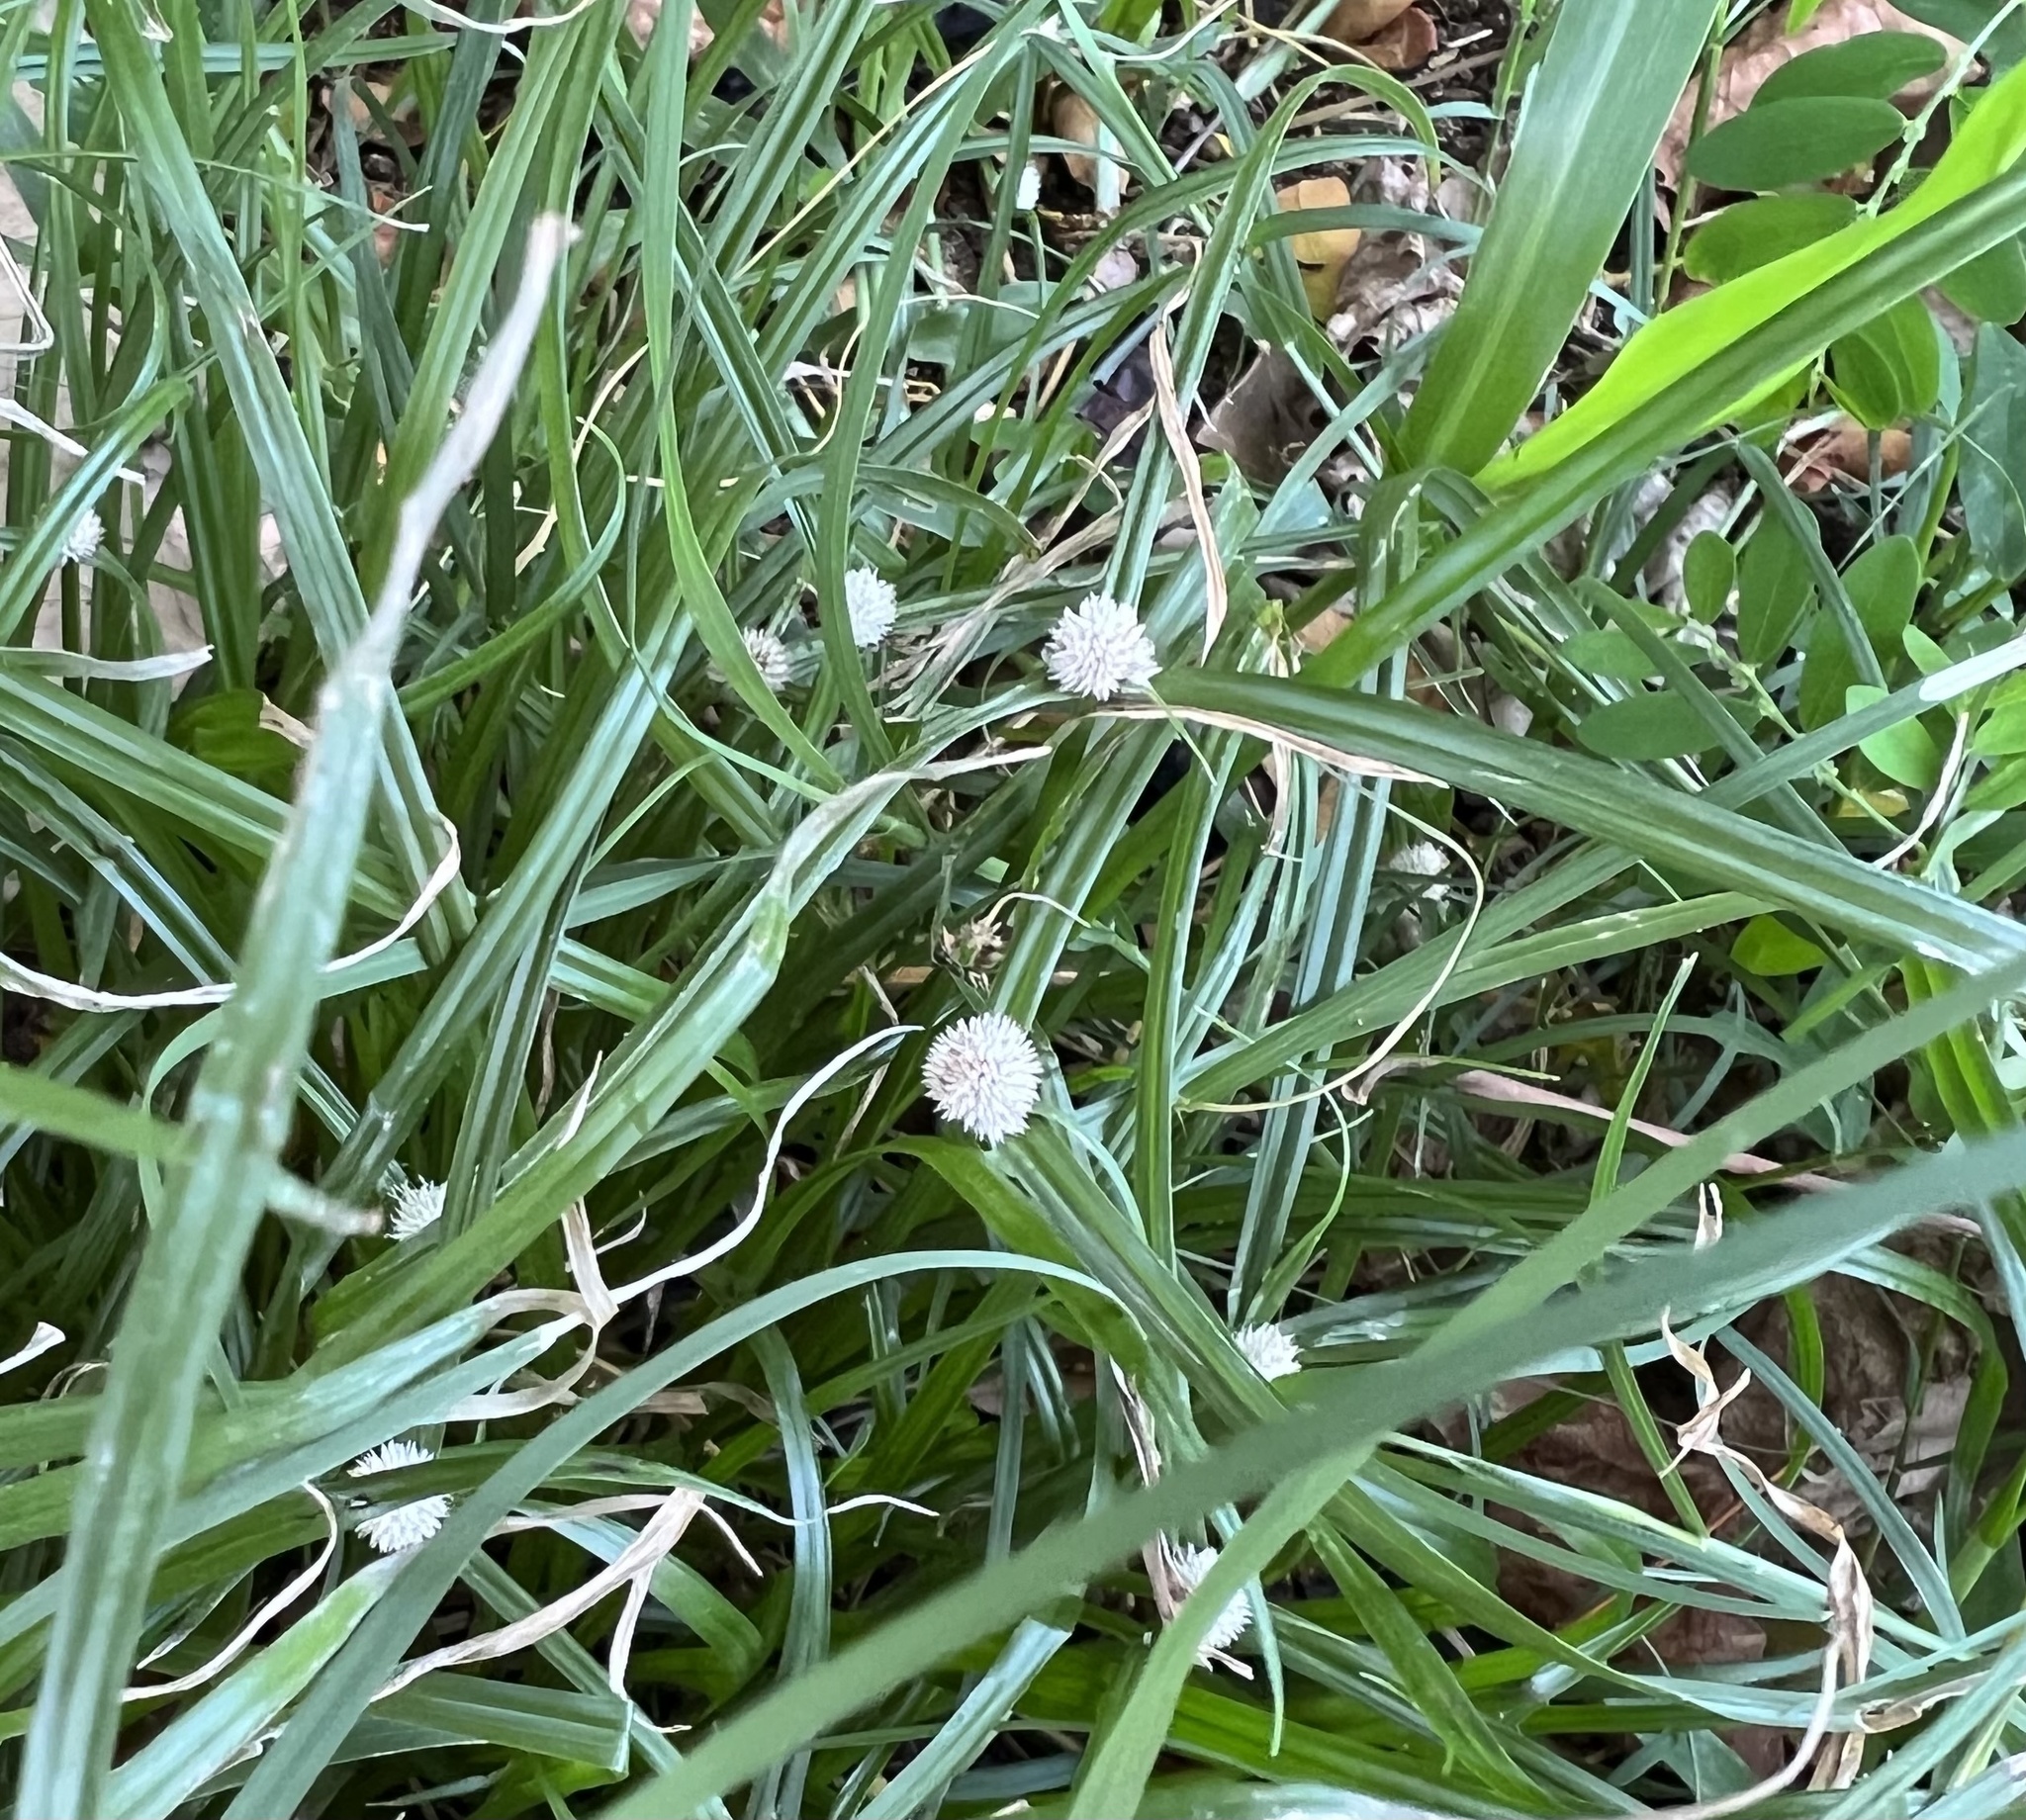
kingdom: Plantae
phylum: Tracheophyta
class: Liliopsida
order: Poales
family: Cyperaceae
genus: Cyperus
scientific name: Cyperus mindorensis
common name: Flatsedge
